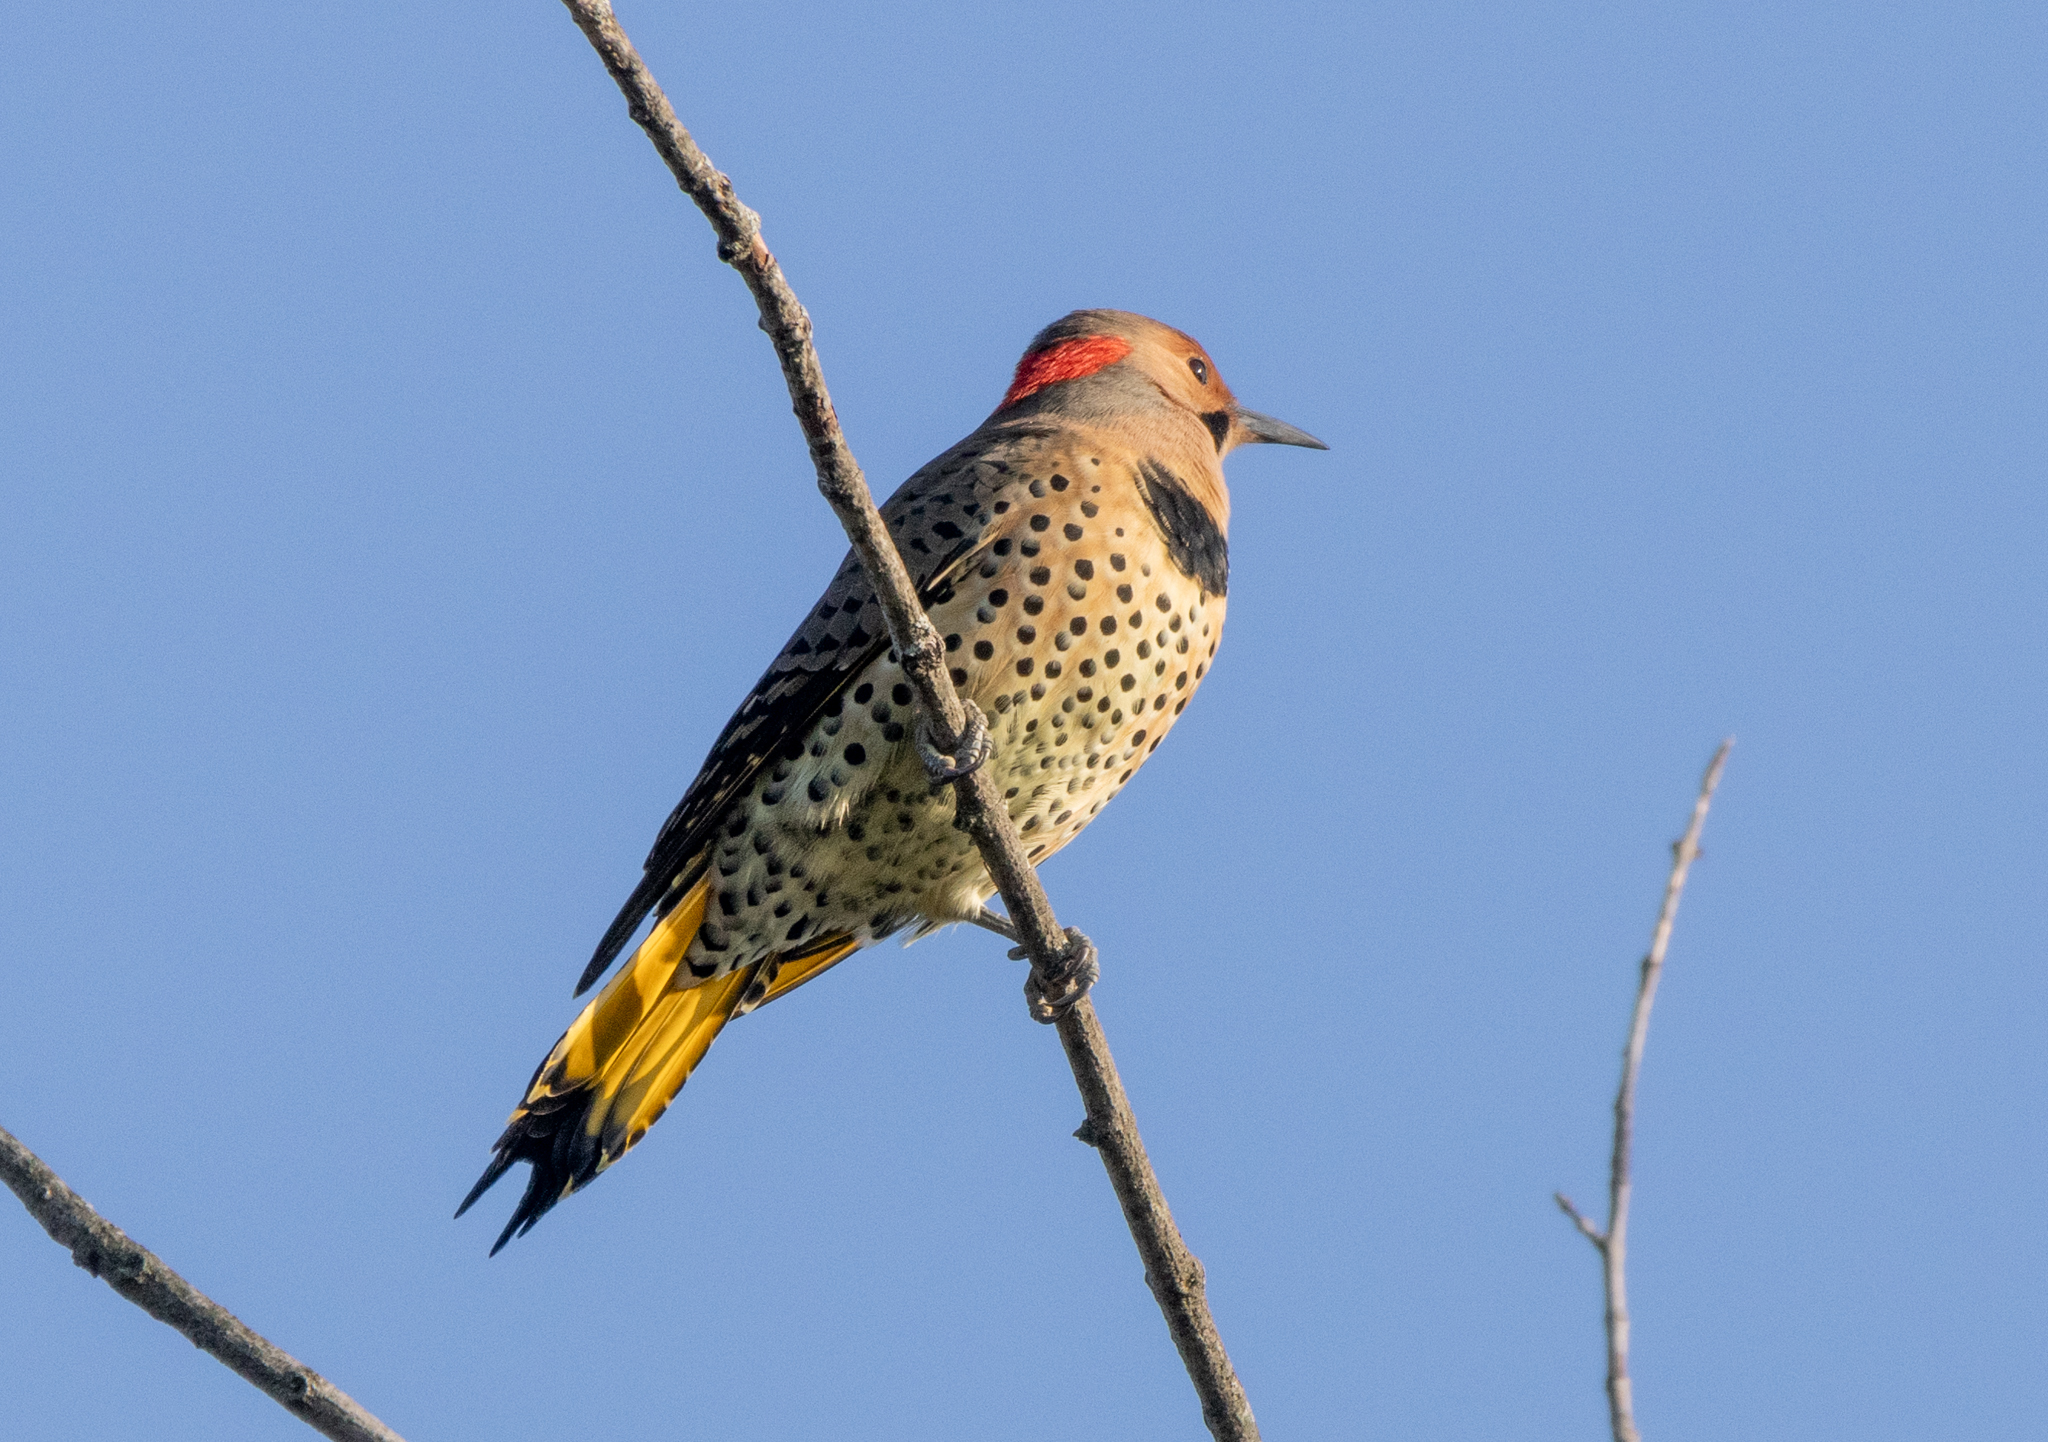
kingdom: Animalia
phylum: Chordata
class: Aves
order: Piciformes
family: Picidae
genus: Colaptes
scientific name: Colaptes auratus
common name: Northern flicker
